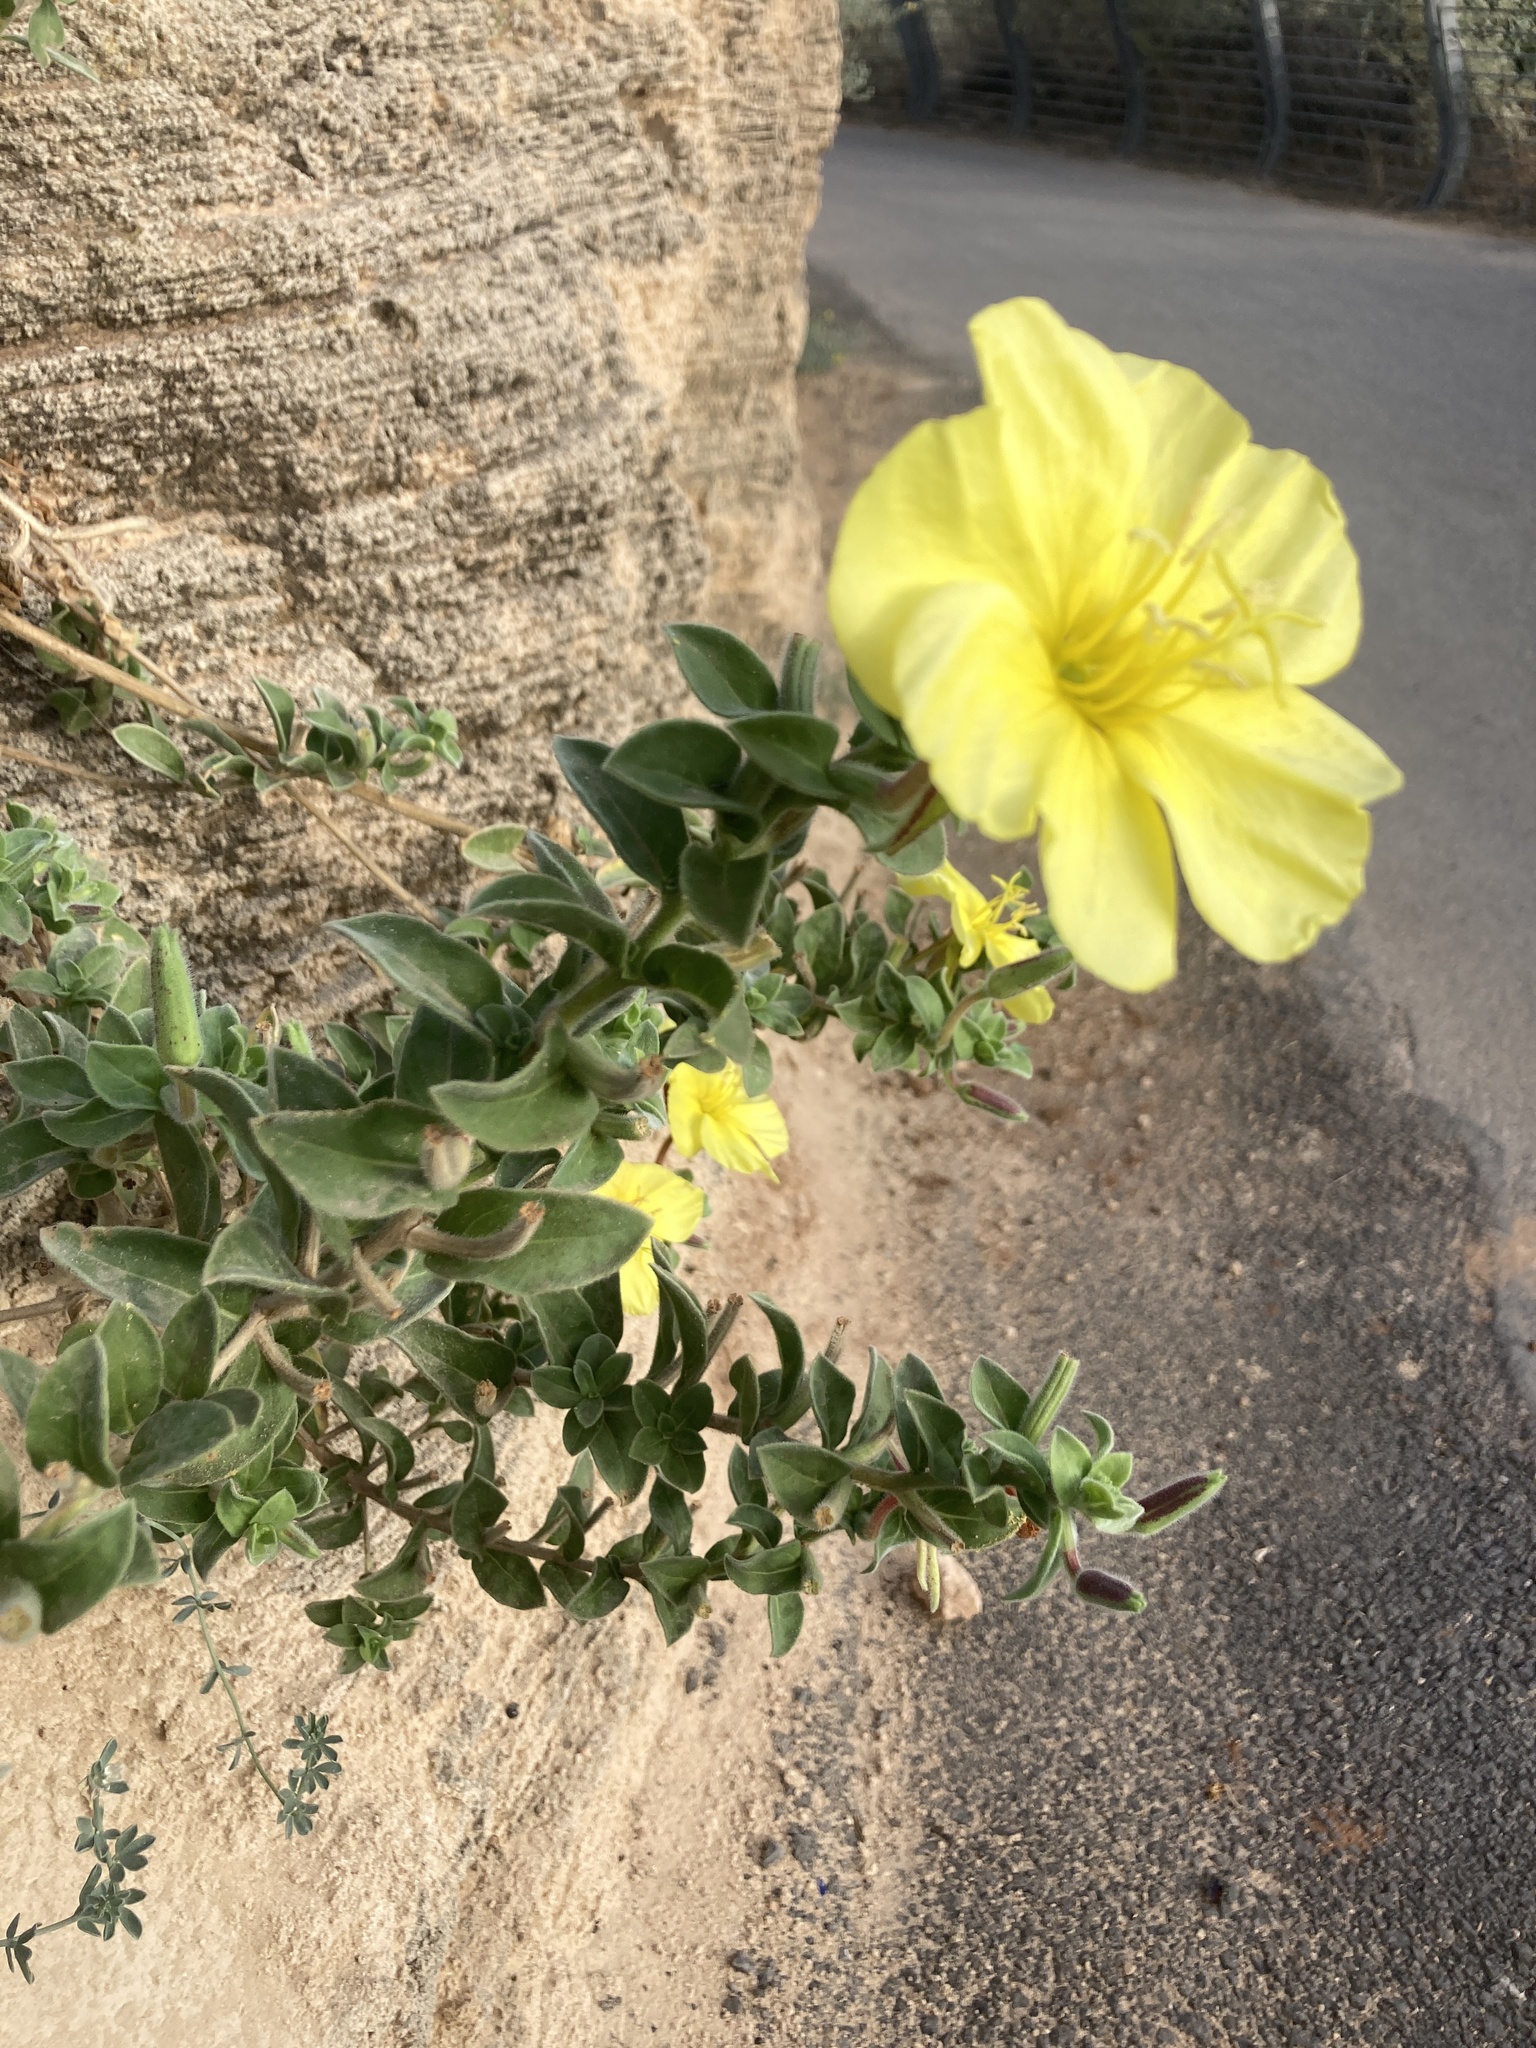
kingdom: Plantae
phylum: Tracheophyta
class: Magnoliopsida
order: Myrtales
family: Onagraceae
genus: Oenothera
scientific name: Oenothera drummondii
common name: Beach evening-primrose
